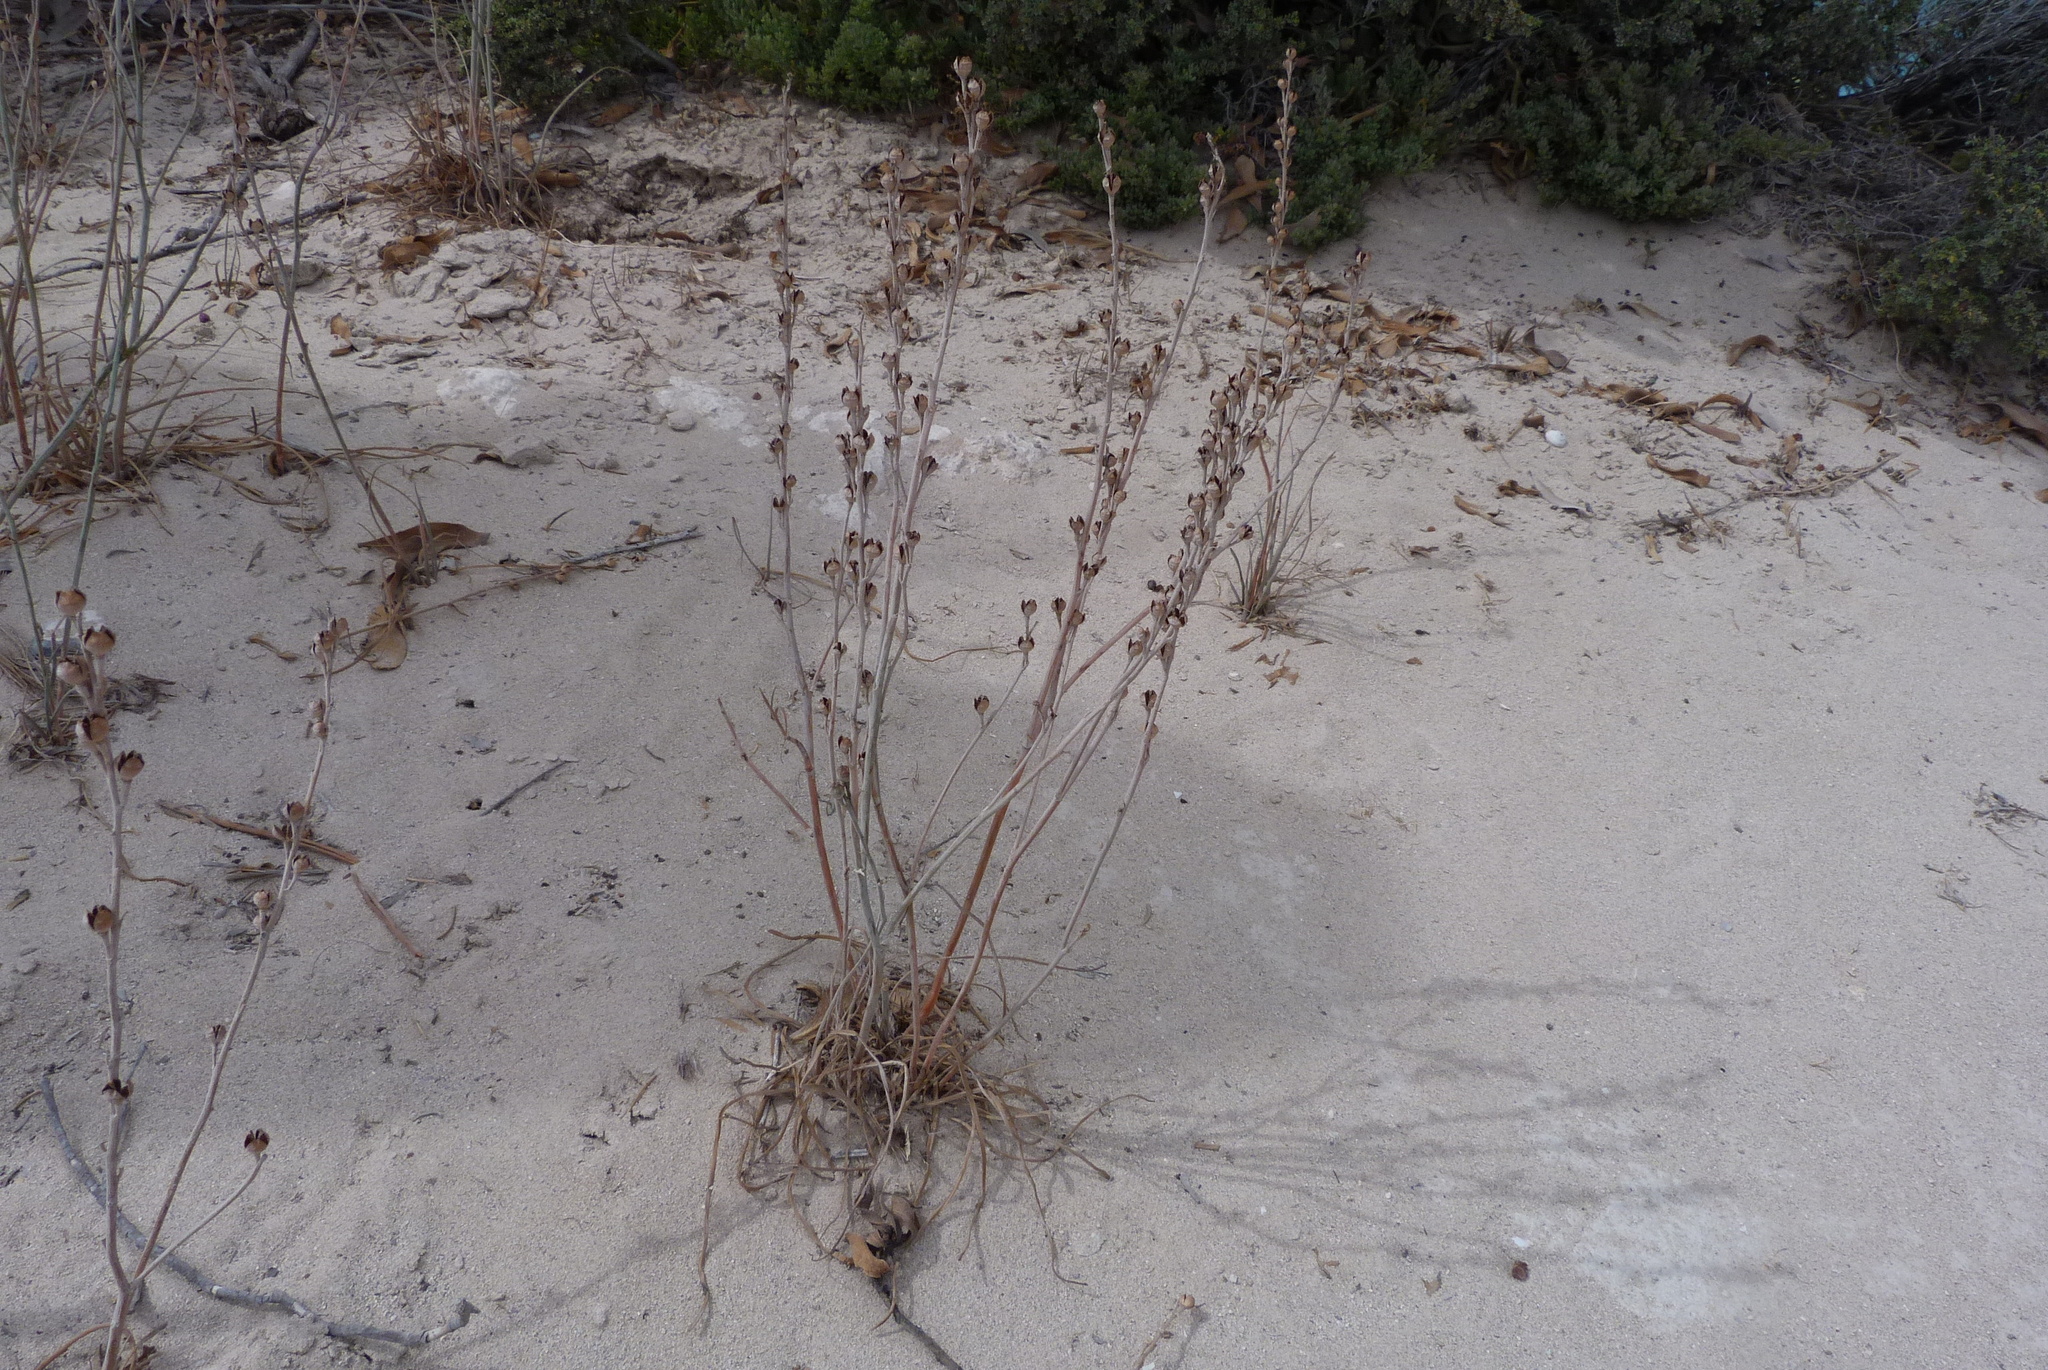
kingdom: Plantae
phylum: Tracheophyta
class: Liliopsida
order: Asparagales
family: Asphodelaceae
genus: Asphodelus
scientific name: Asphodelus fistulosus
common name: Onionweed
